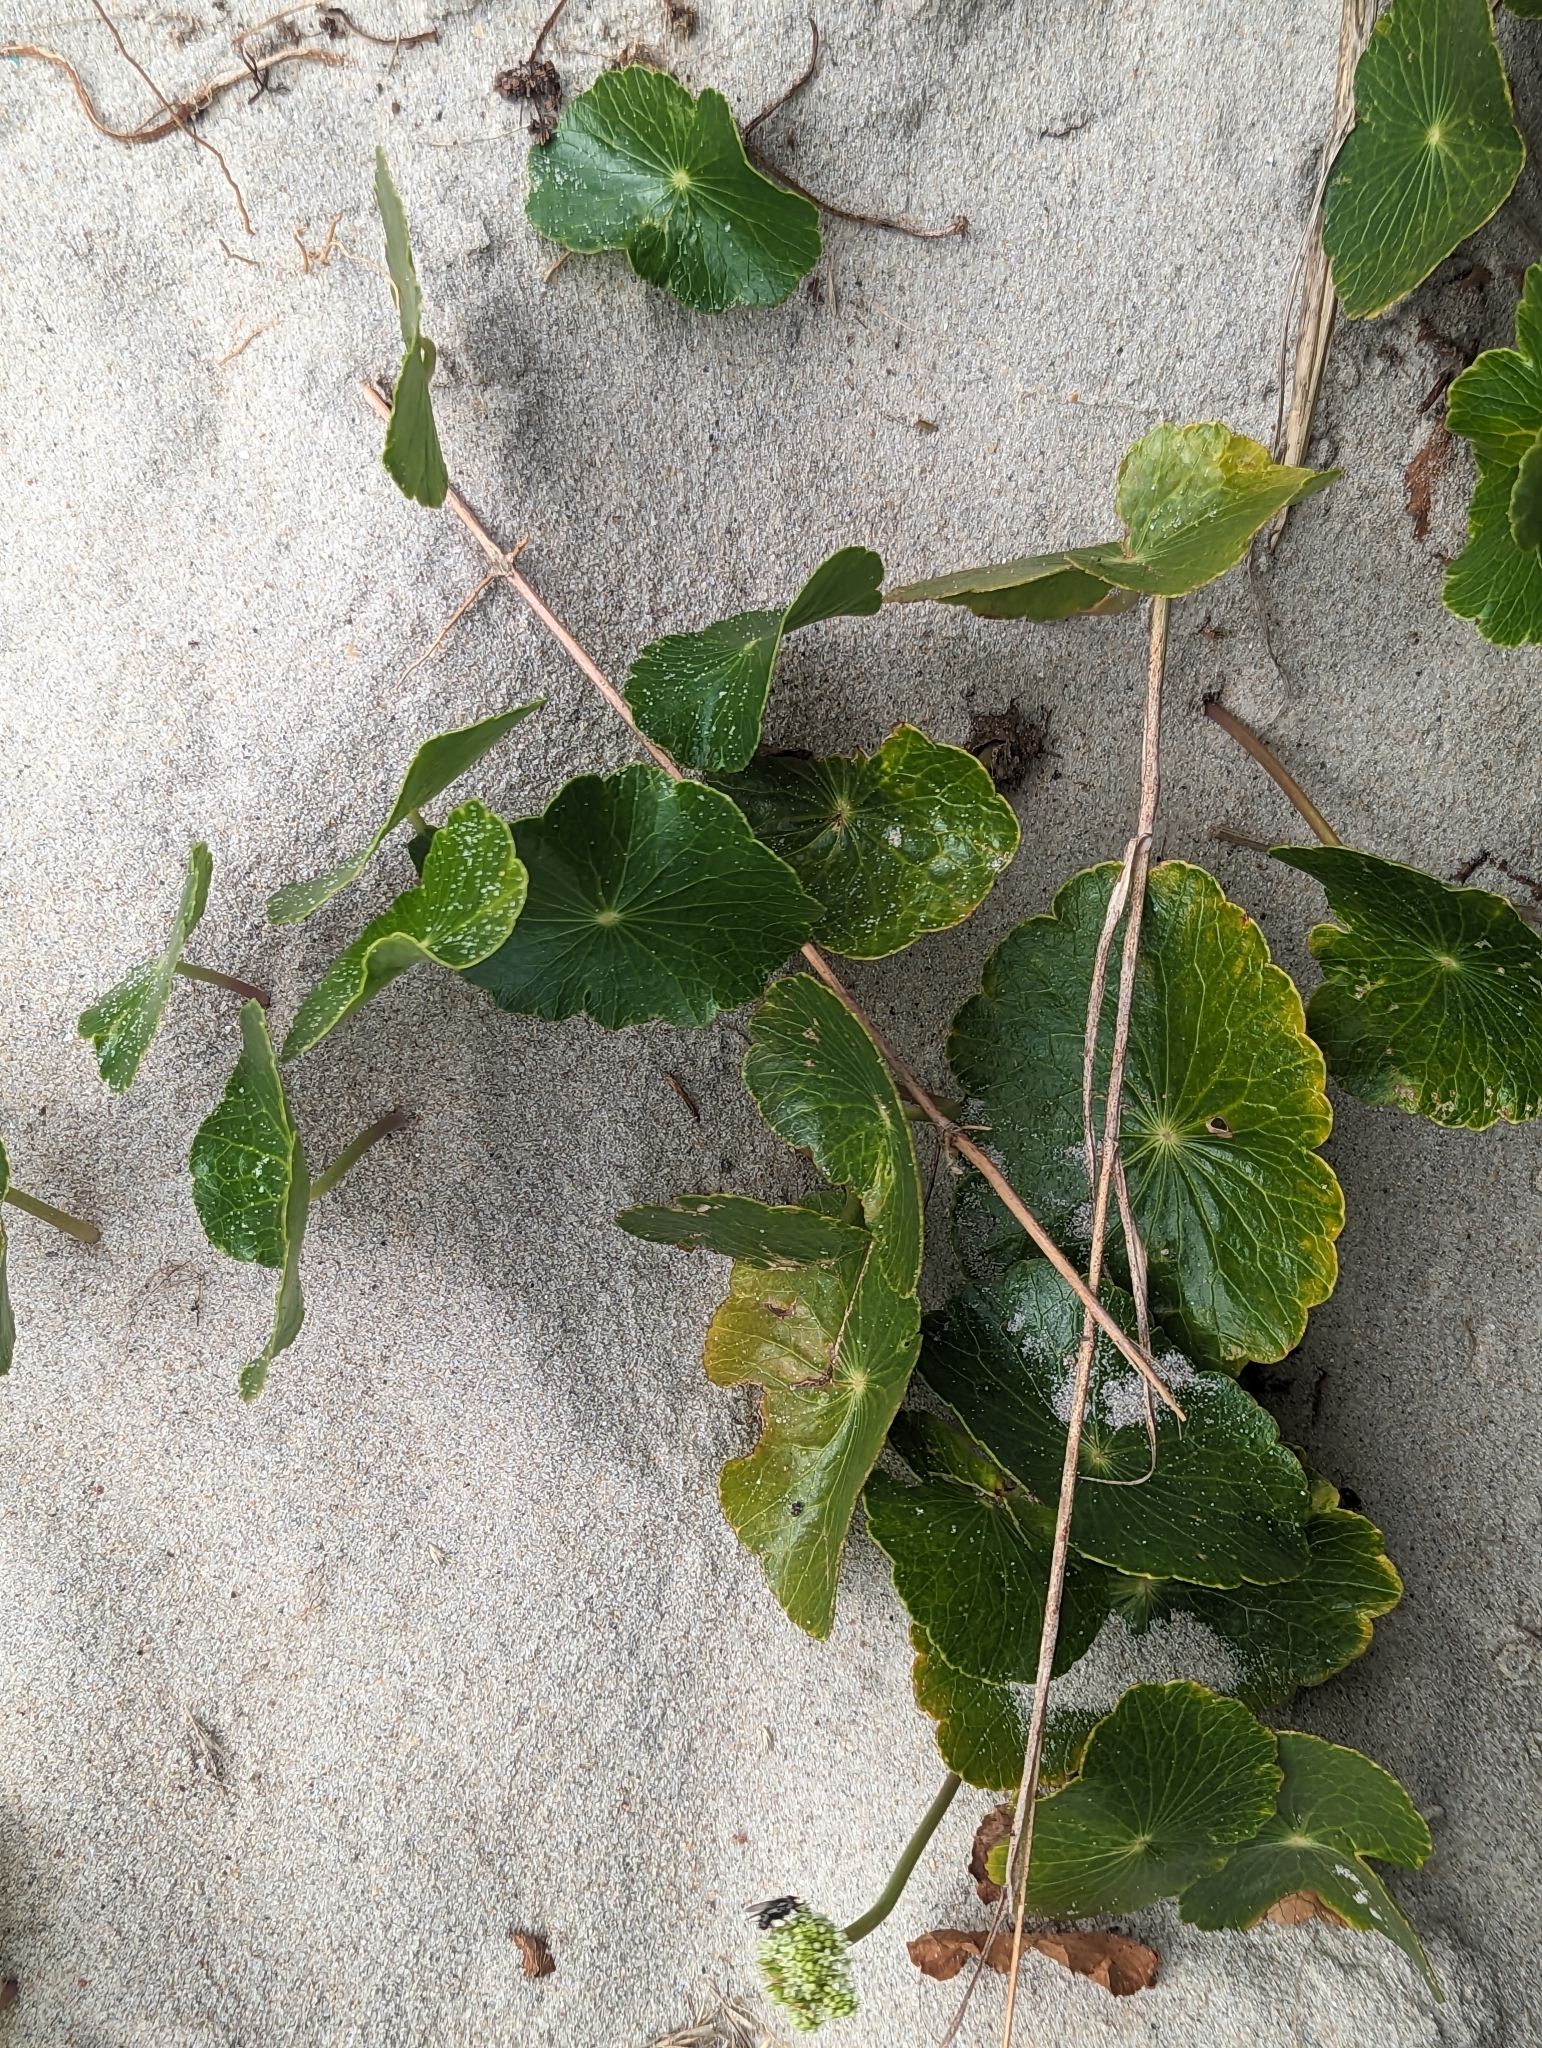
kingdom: Plantae
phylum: Tracheophyta
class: Magnoliopsida
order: Apiales
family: Araliaceae
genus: Hydrocotyle
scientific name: Hydrocotyle bonariensis
